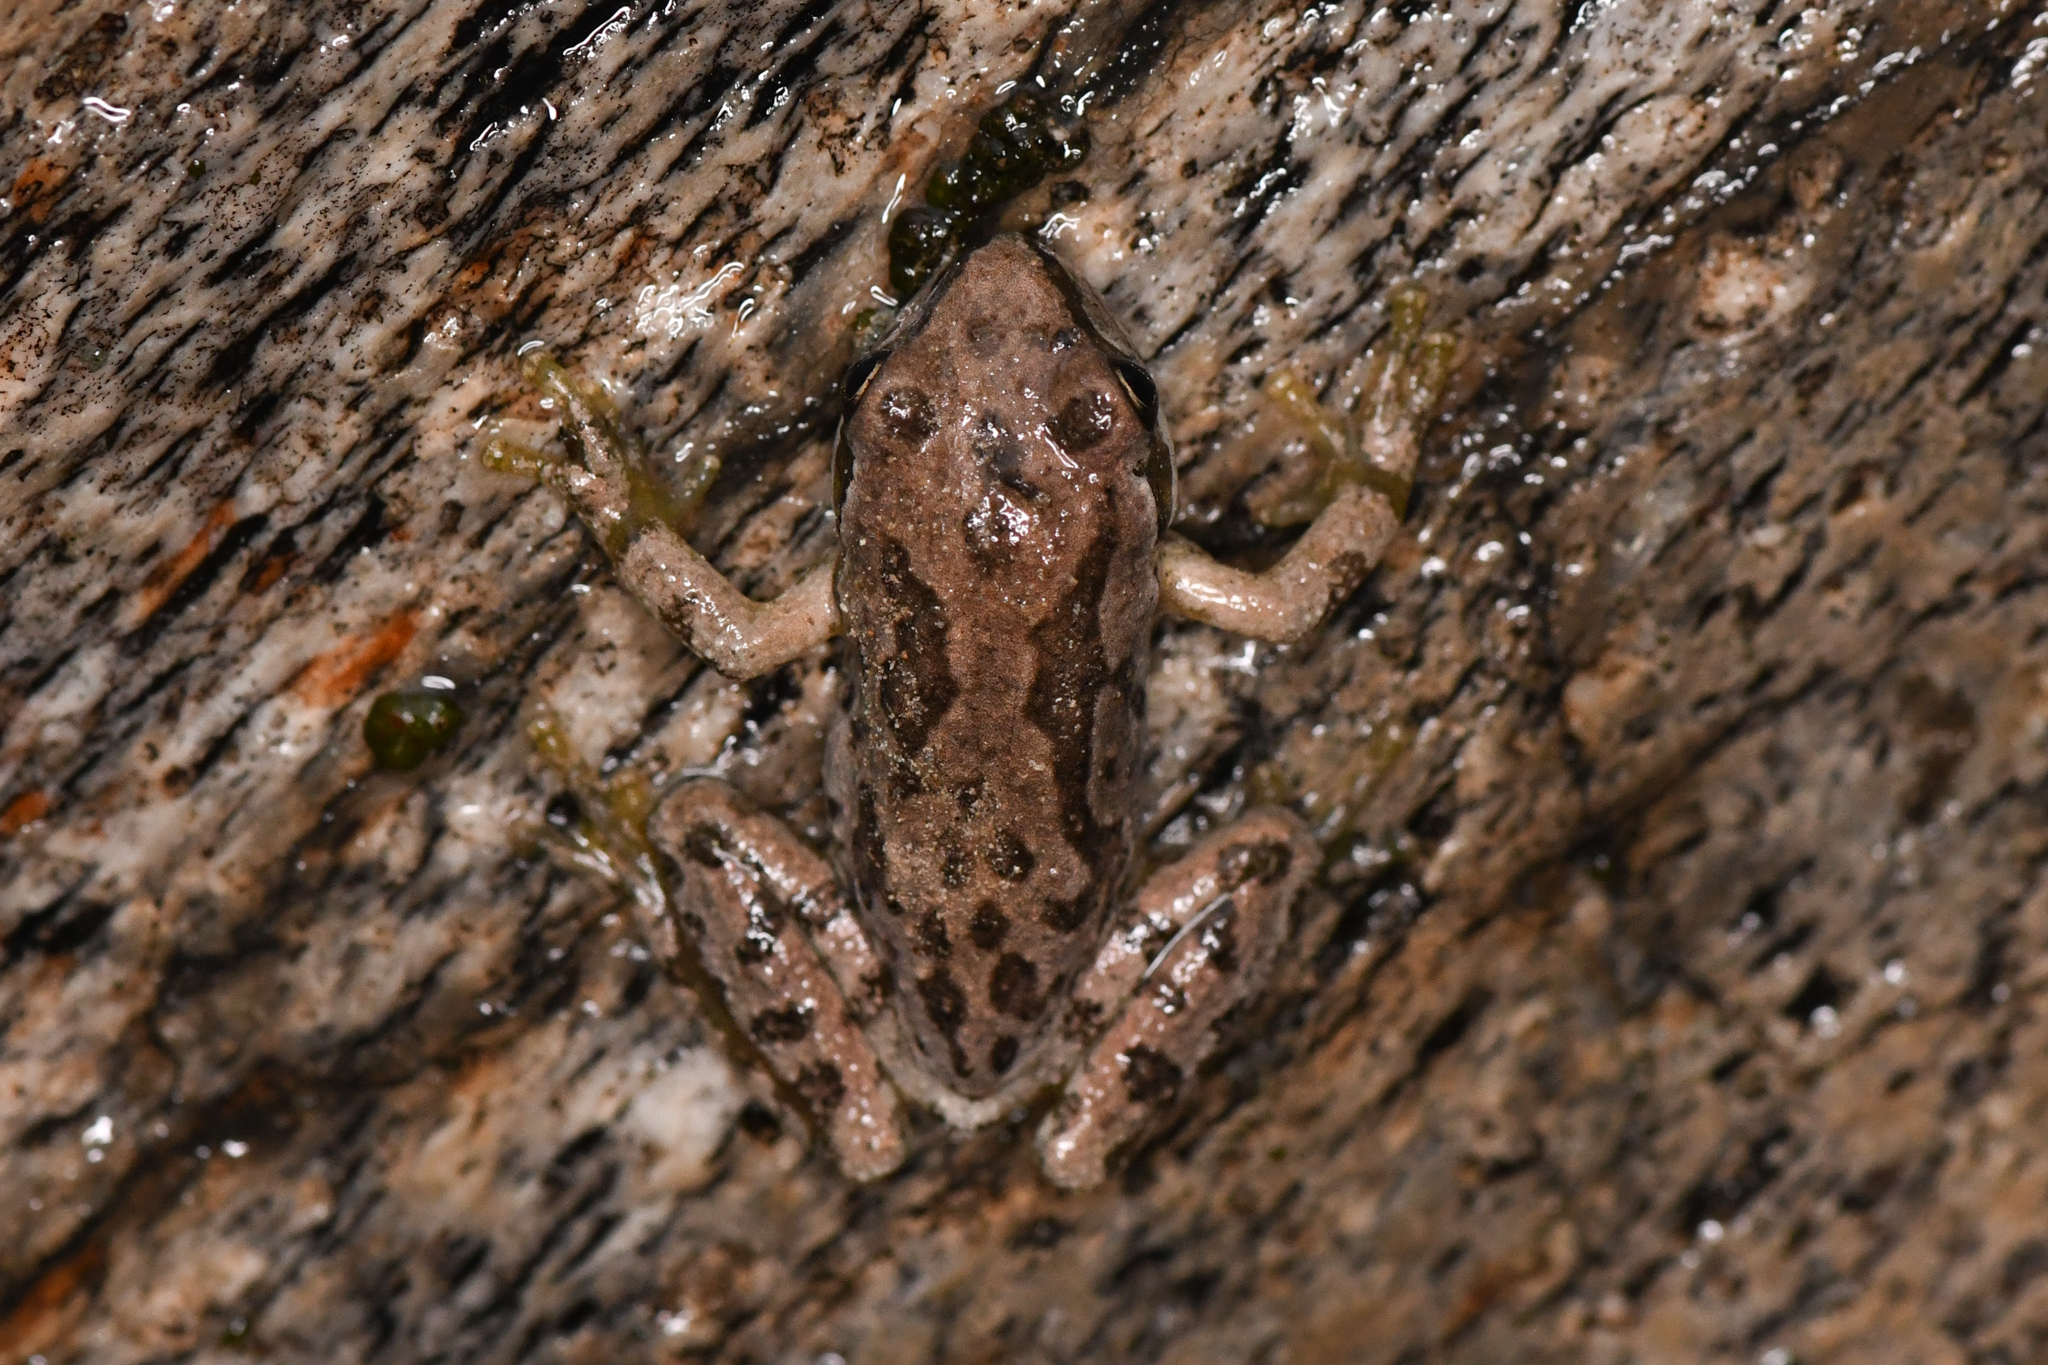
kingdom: Animalia
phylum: Chordata
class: Amphibia
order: Anura
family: Hylidae
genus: Pseudacris
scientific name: Pseudacris regilla
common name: Pacific chorus frog
